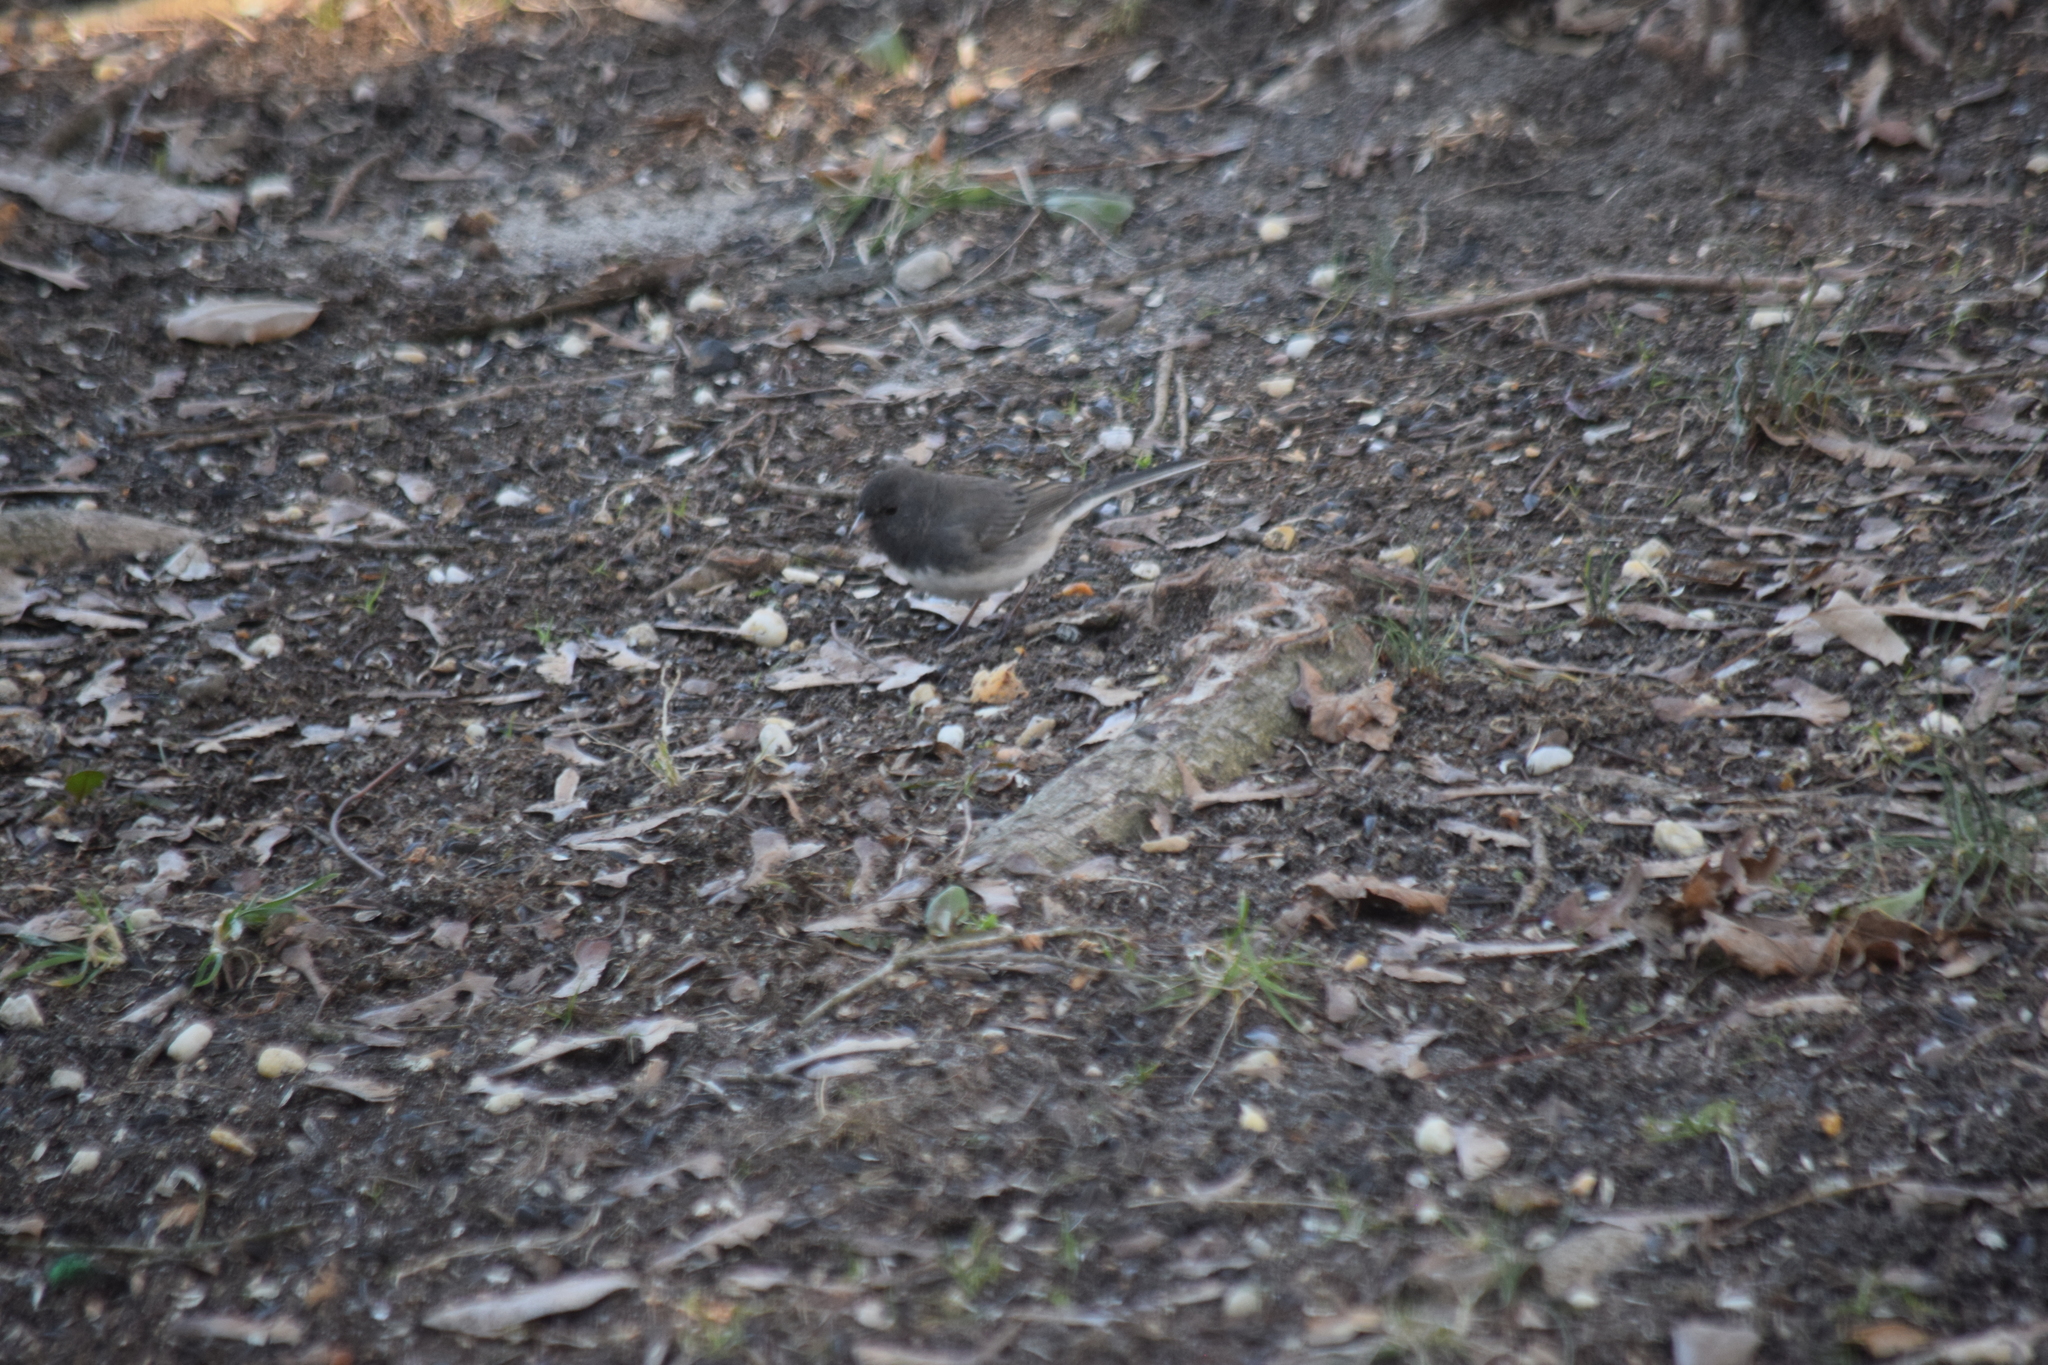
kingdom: Animalia
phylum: Chordata
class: Aves
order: Passeriformes
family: Passerellidae
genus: Junco
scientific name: Junco hyemalis
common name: Dark-eyed junco
